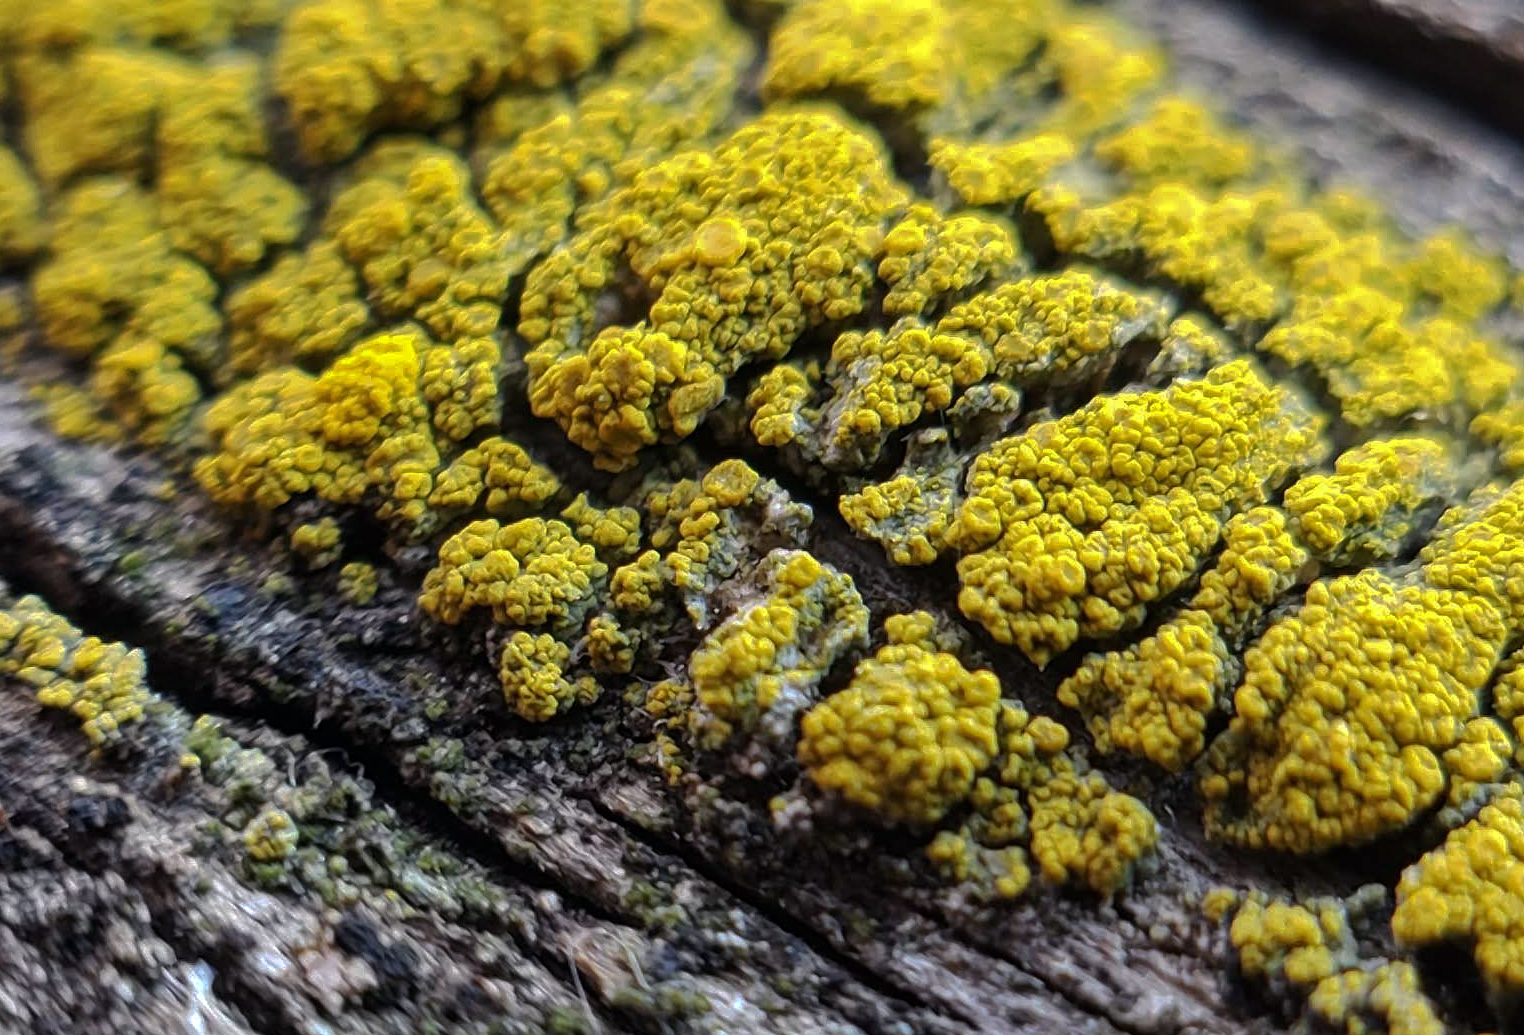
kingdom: Fungi
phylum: Ascomycota
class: Candelariomycetes
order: Candelariales
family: Candelariaceae
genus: Candelariella
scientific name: Candelariella vitellina
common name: Common goldspeck
